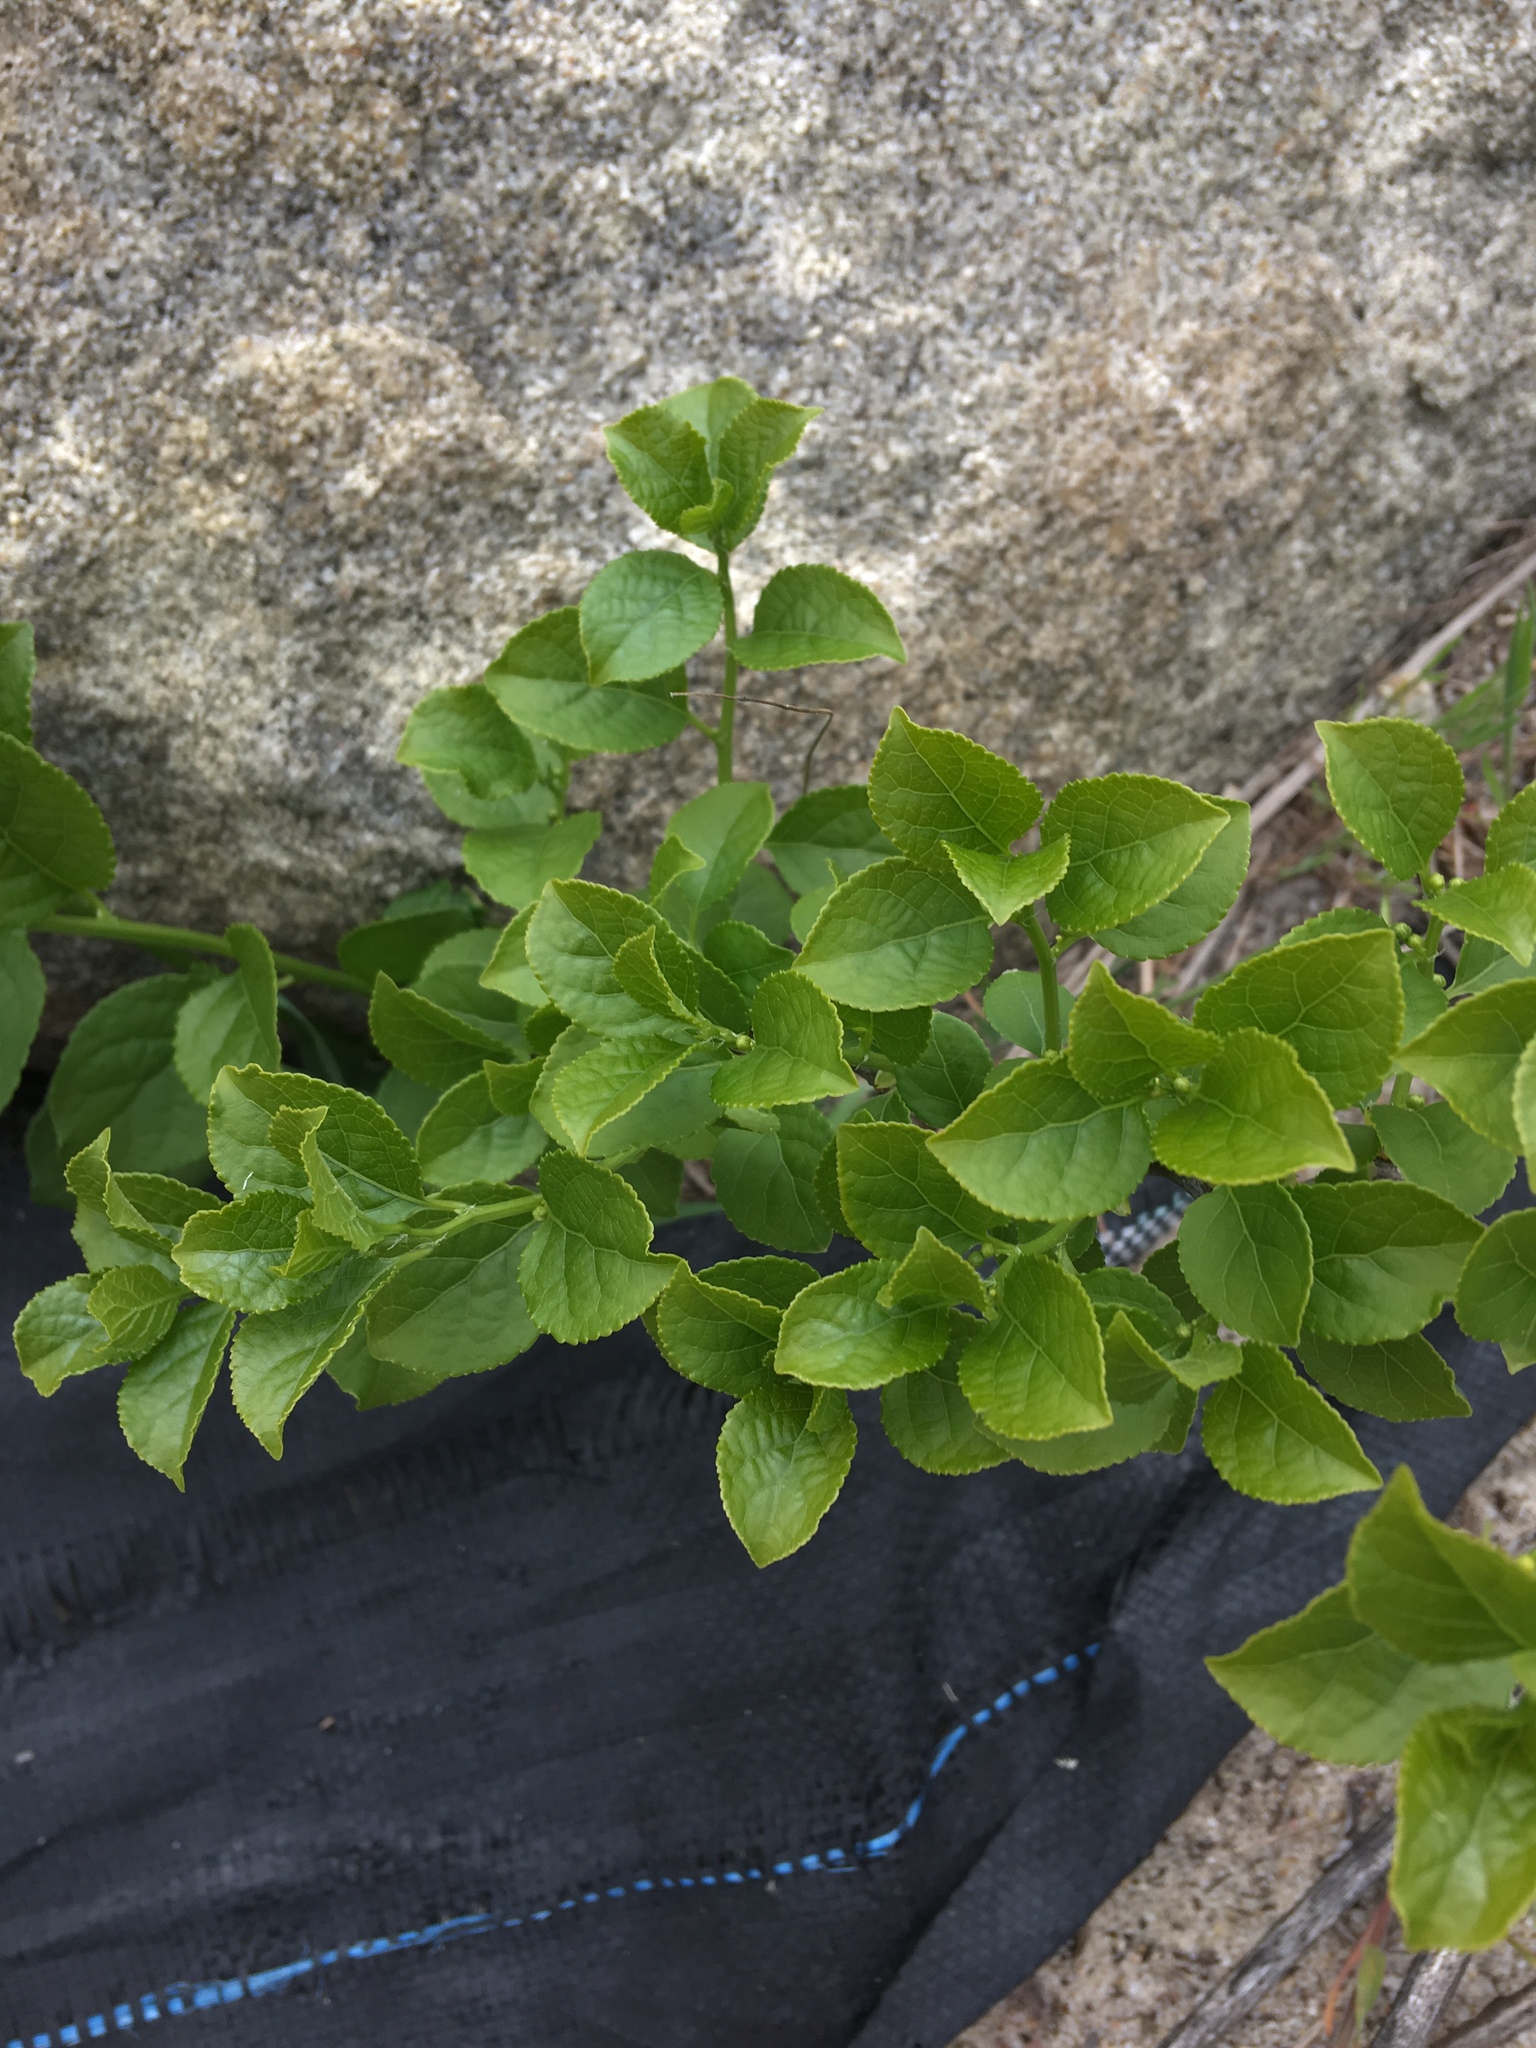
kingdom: Plantae
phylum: Tracheophyta
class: Magnoliopsida
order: Celastrales
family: Celastraceae
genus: Celastrus
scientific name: Celastrus orbiculatus
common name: Oriental bittersweet
